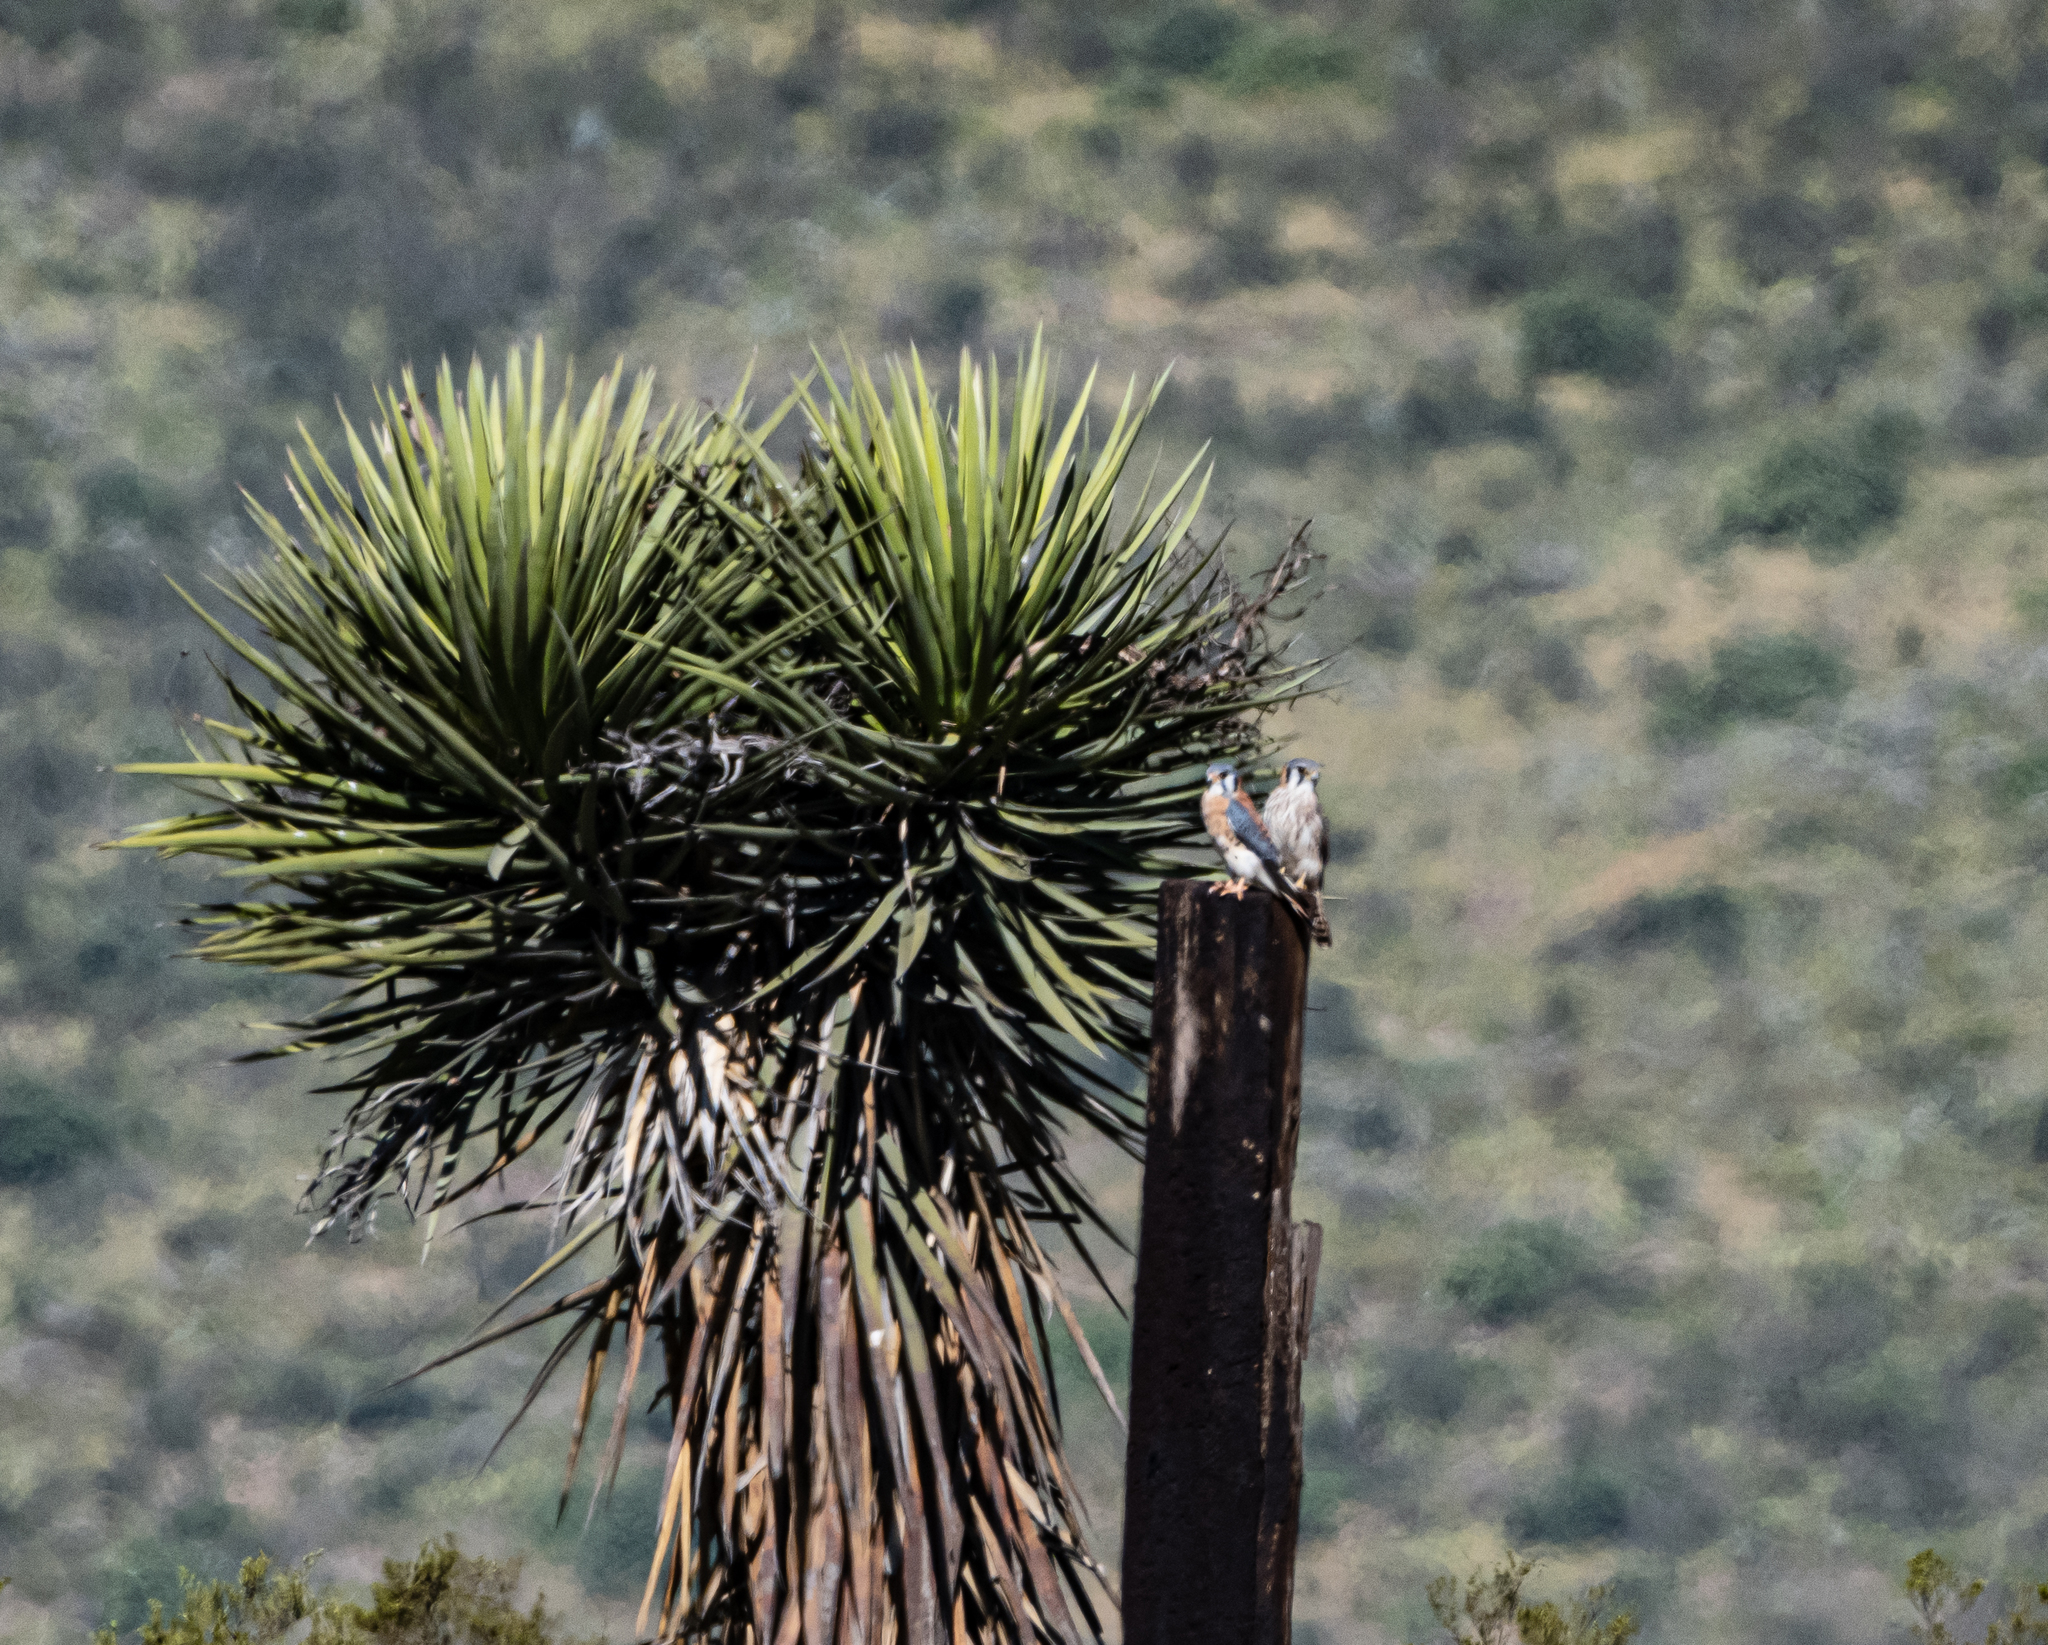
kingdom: Animalia
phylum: Chordata
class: Aves
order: Falconiformes
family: Falconidae
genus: Falco
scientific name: Falco sparverius
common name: American kestrel
